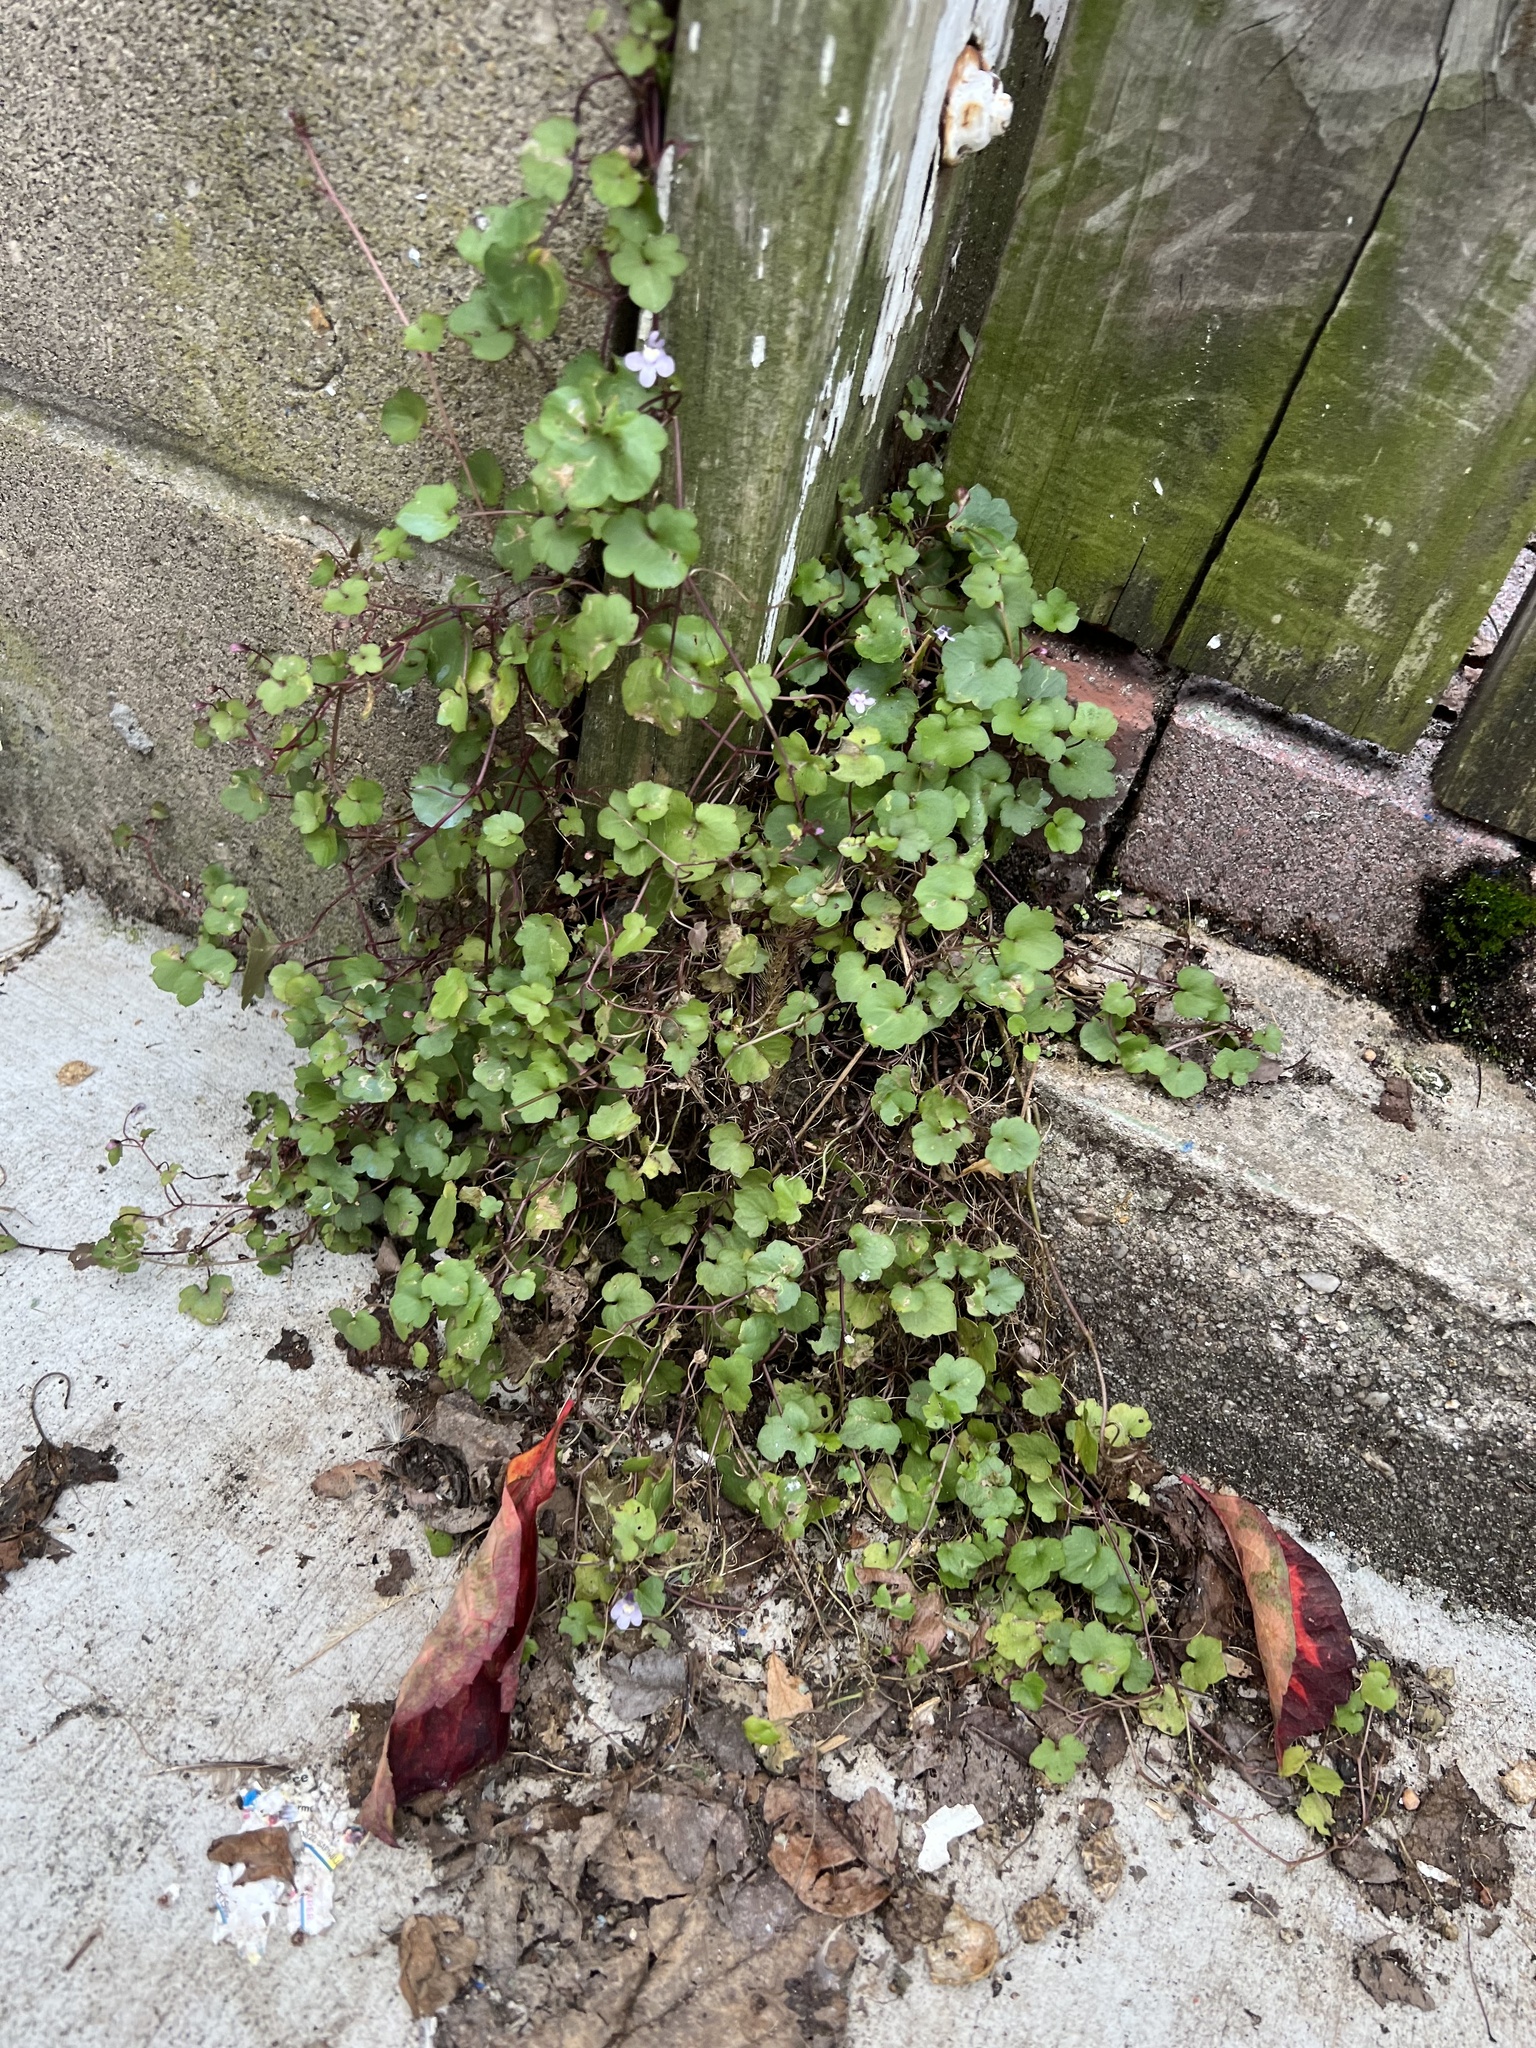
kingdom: Plantae
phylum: Tracheophyta
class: Magnoliopsida
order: Lamiales
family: Plantaginaceae
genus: Cymbalaria
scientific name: Cymbalaria muralis
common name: Ivy-leaved toadflax
